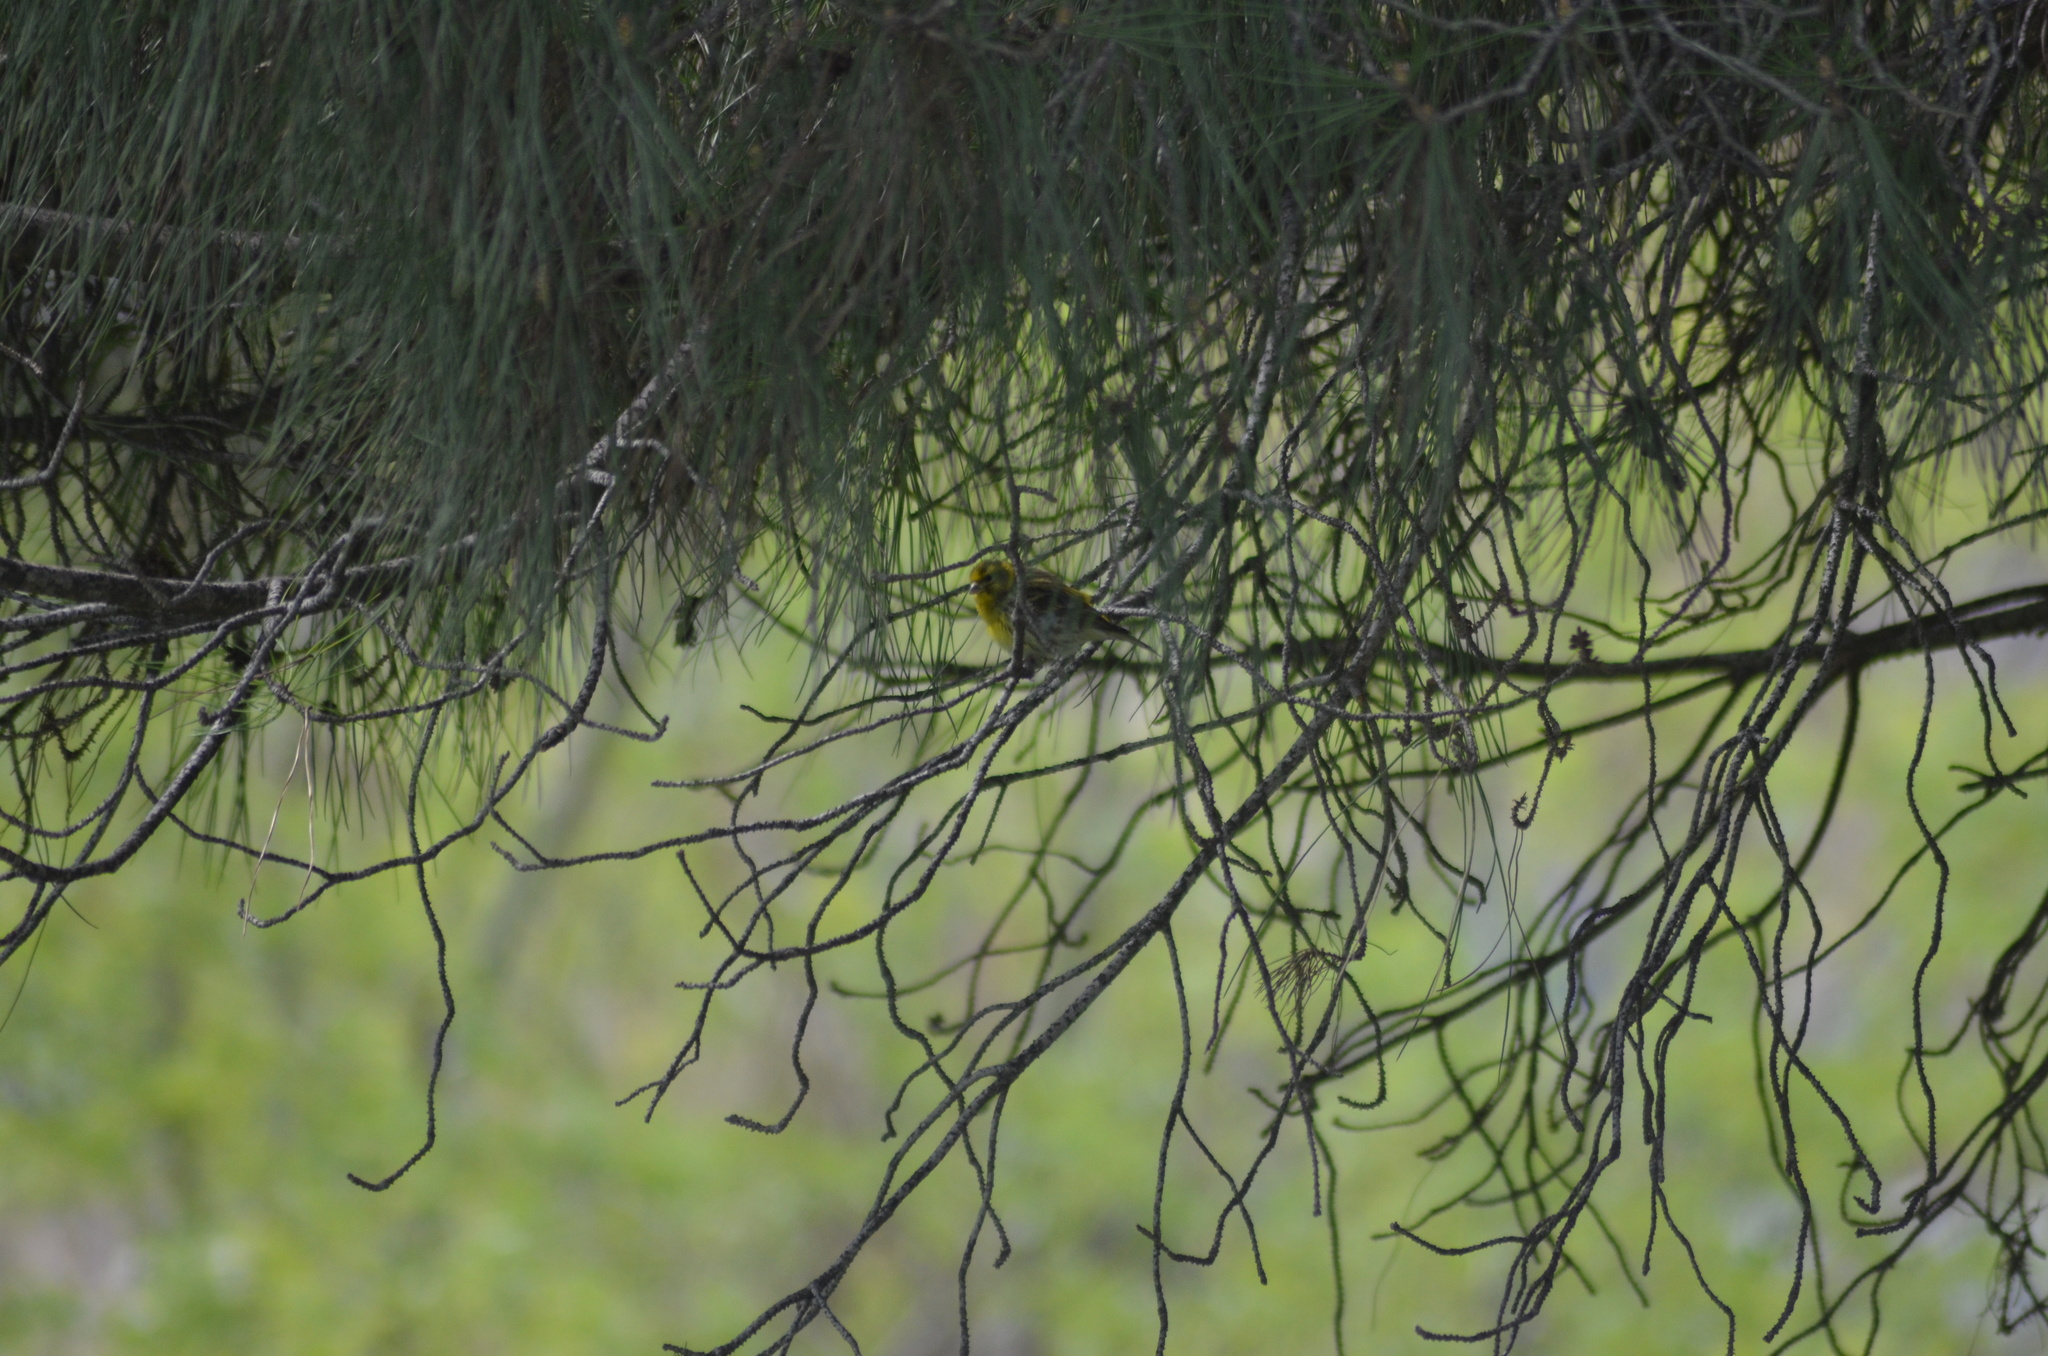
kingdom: Animalia
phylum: Chordata
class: Aves
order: Passeriformes
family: Fringillidae
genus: Serinus
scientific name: Serinus serinus
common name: European serin
